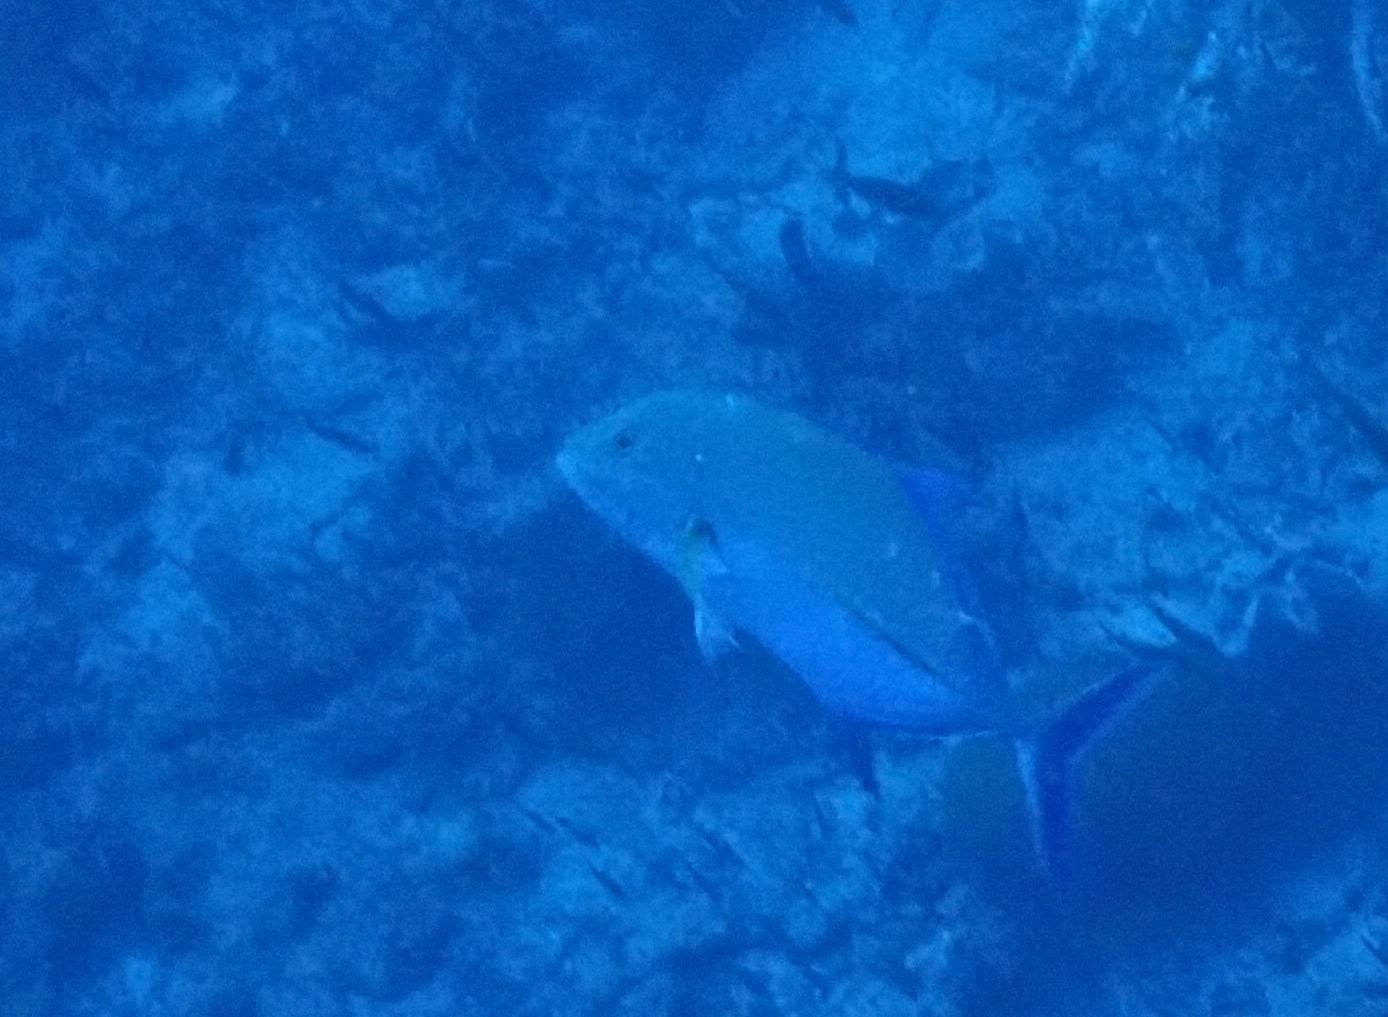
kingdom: Animalia
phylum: Chordata
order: Perciformes
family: Carangidae
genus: Caranx
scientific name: Caranx melampygus
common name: Bluefin trevally
